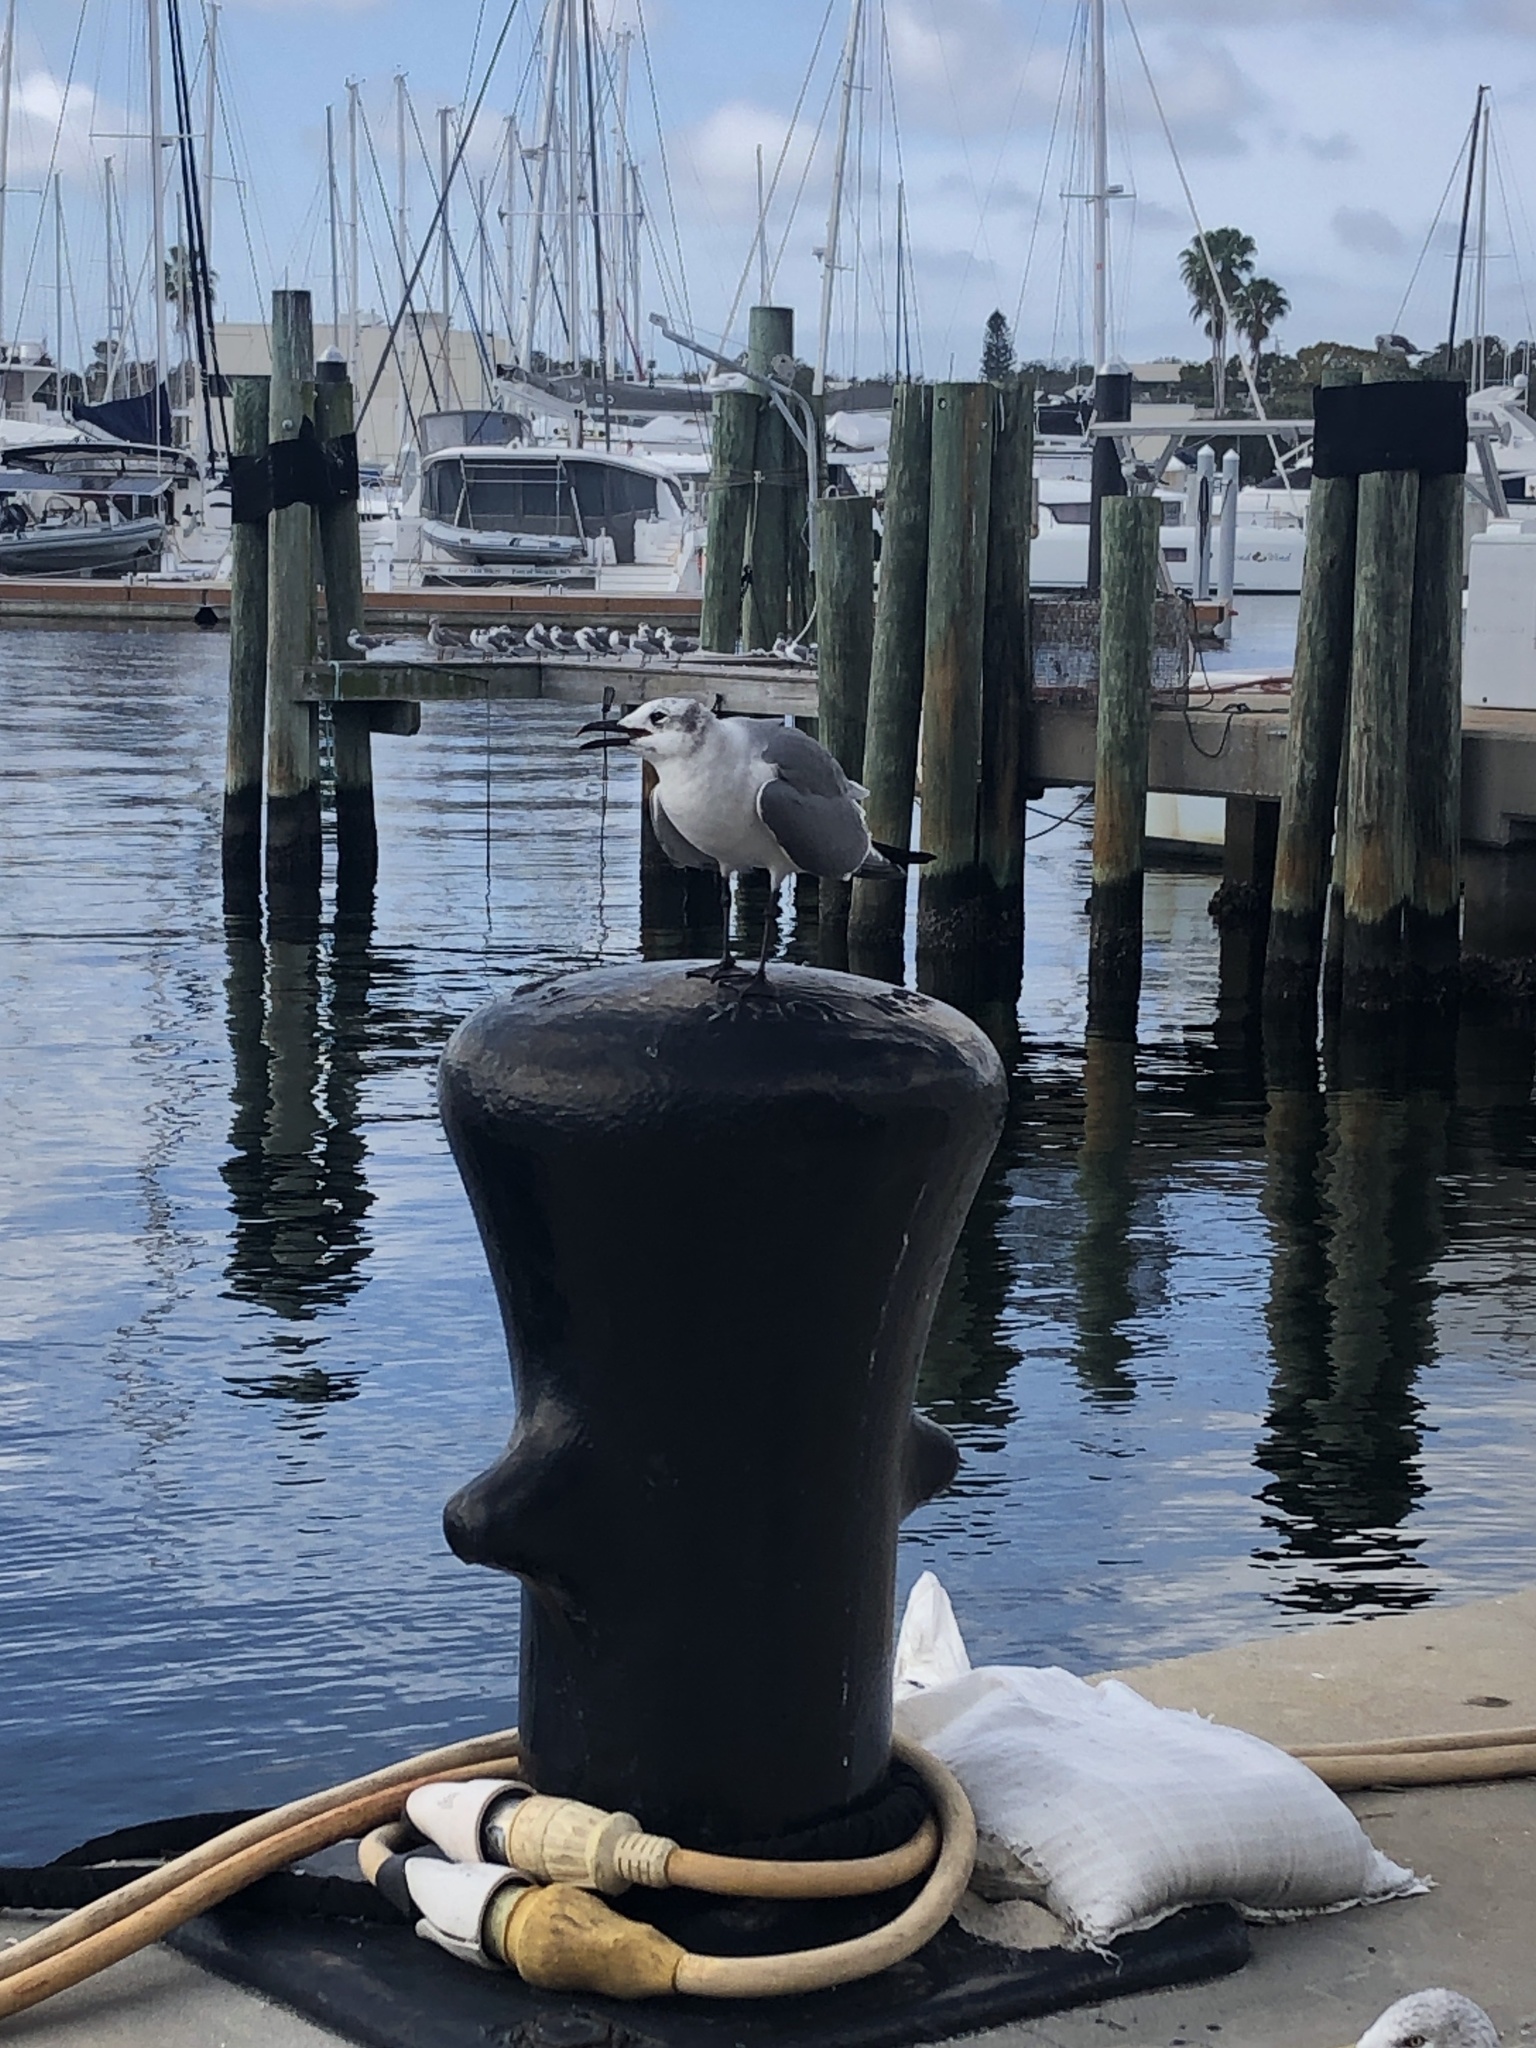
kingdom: Animalia
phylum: Chordata
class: Aves
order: Charadriiformes
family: Laridae
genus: Leucophaeus
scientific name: Leucophaeus atricilla
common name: Laughing gull
